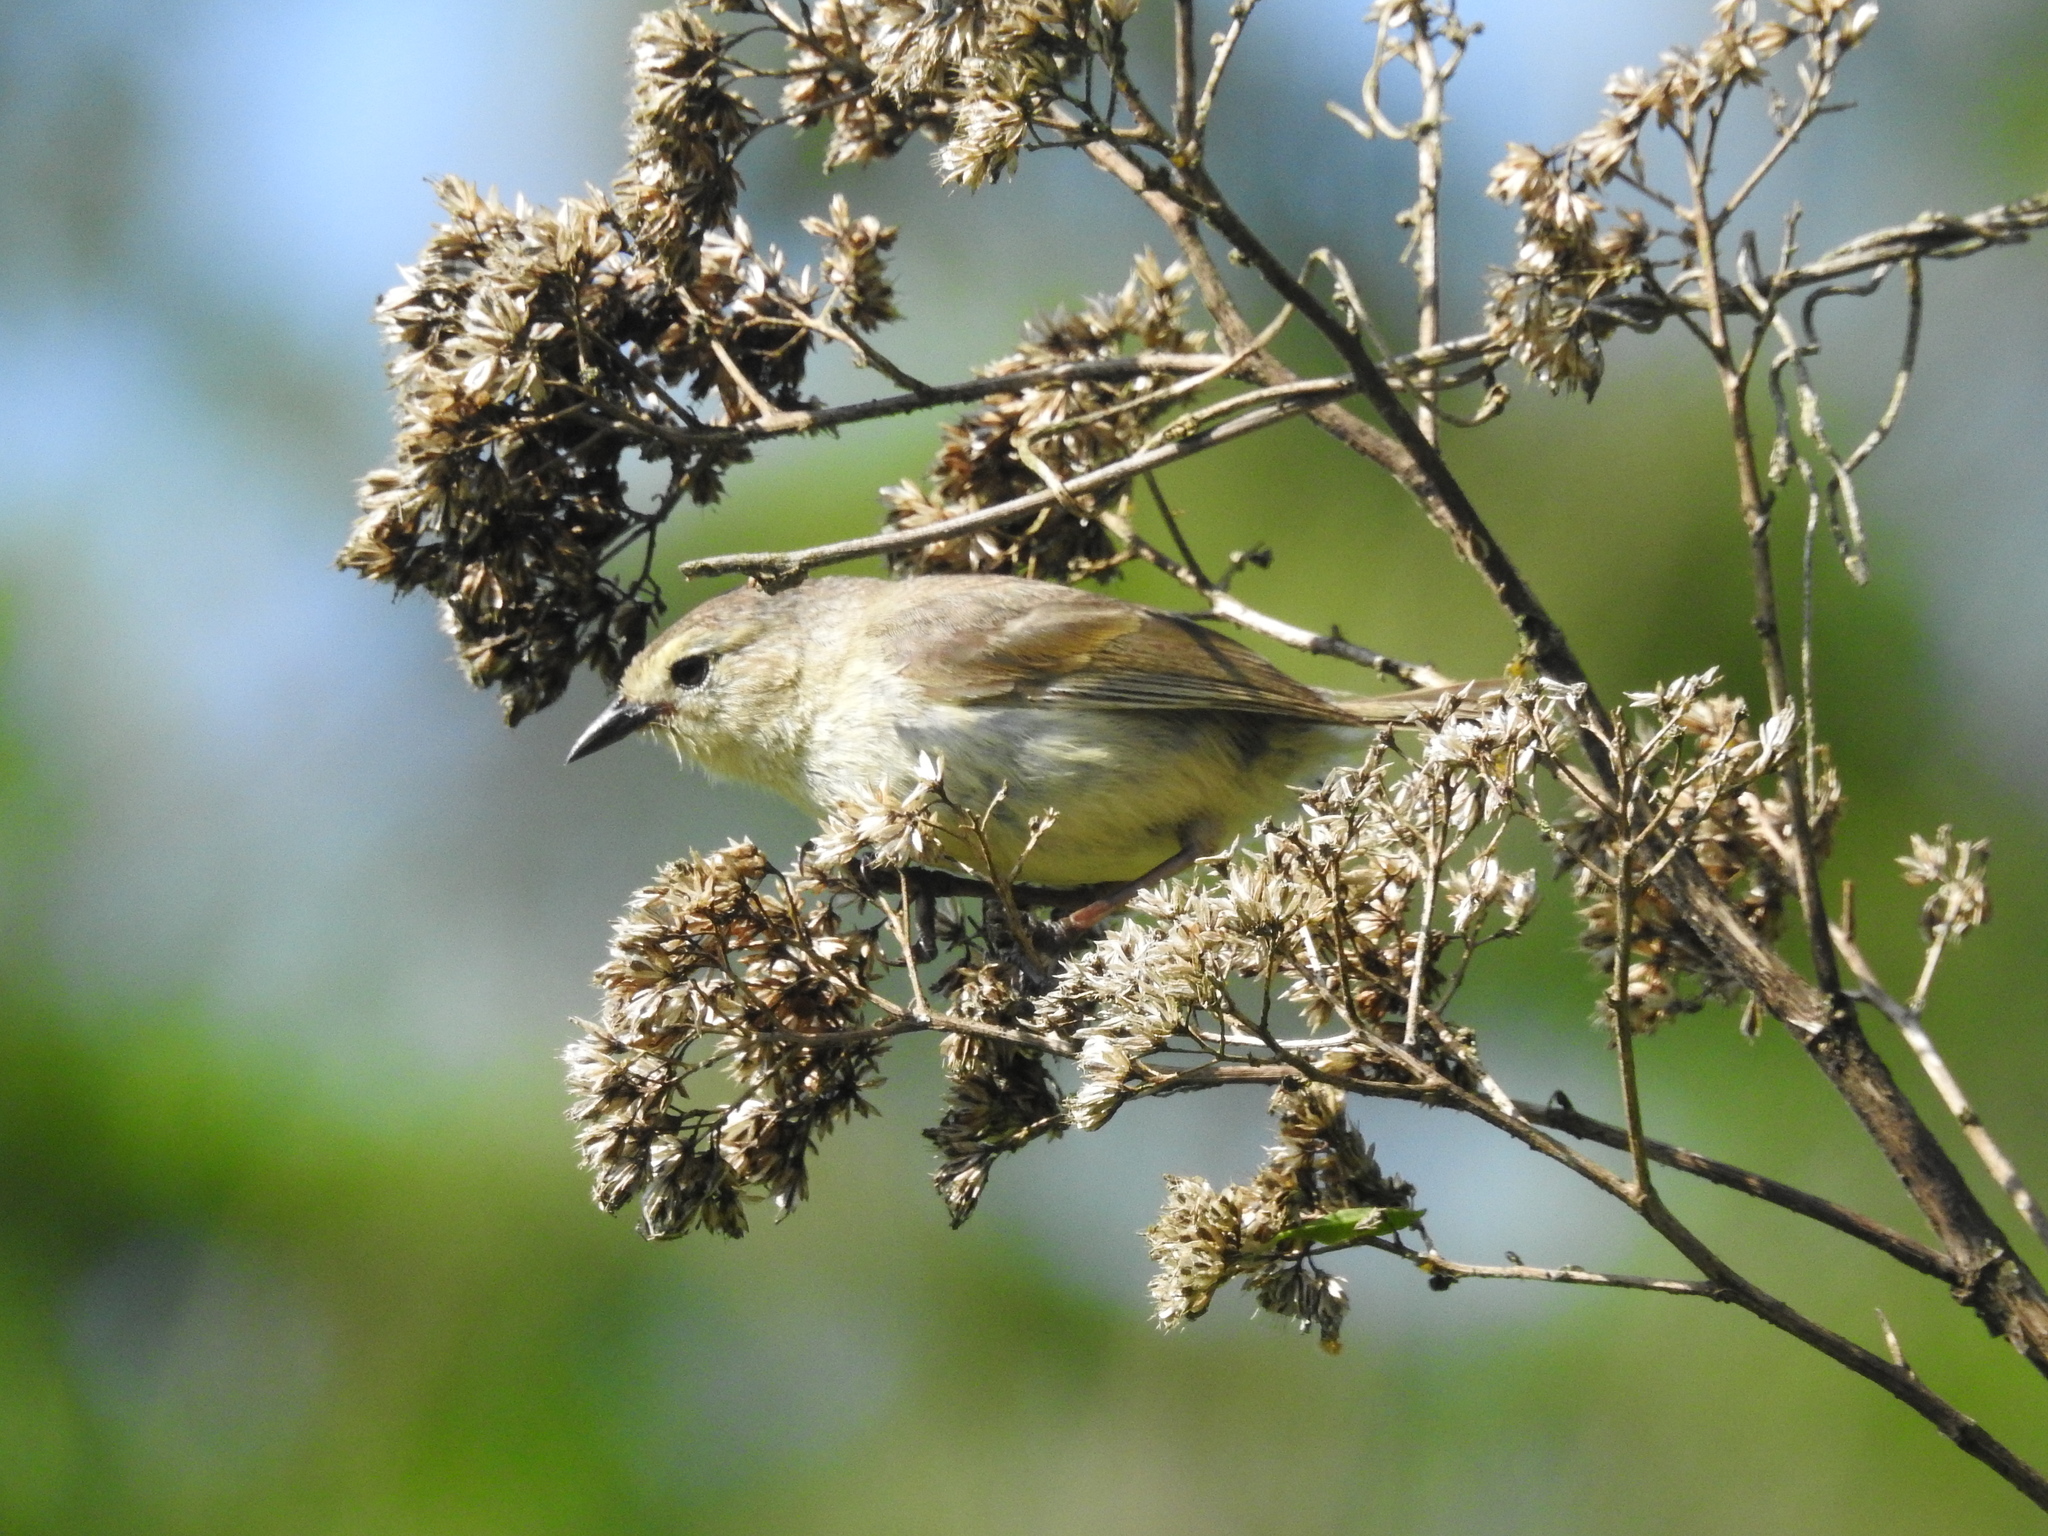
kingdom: Animalia
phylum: Chordata
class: Aves
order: Passeriformes
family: Thraupidae
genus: Certhidea
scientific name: Certhidea fusca
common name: Grey warbler-finch
